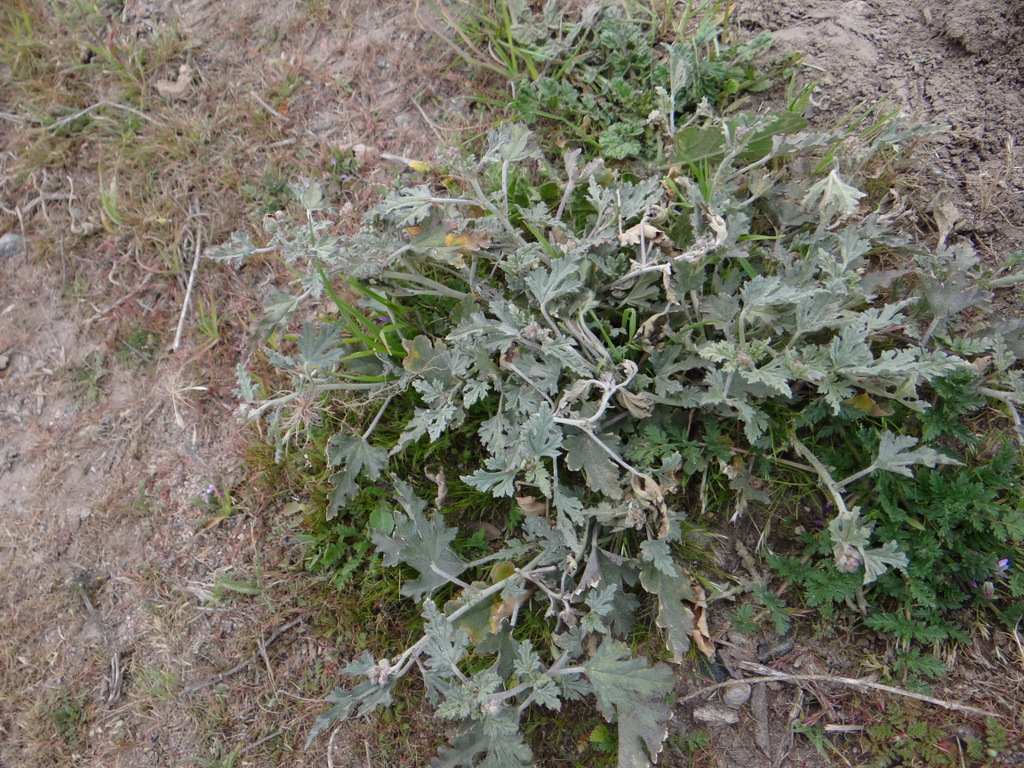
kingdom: Plantae
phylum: Tracheophyta
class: Magnoliopsida
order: Malvales
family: Malvaceae
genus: Sphaeralcea
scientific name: Sphaeralcea miniata
